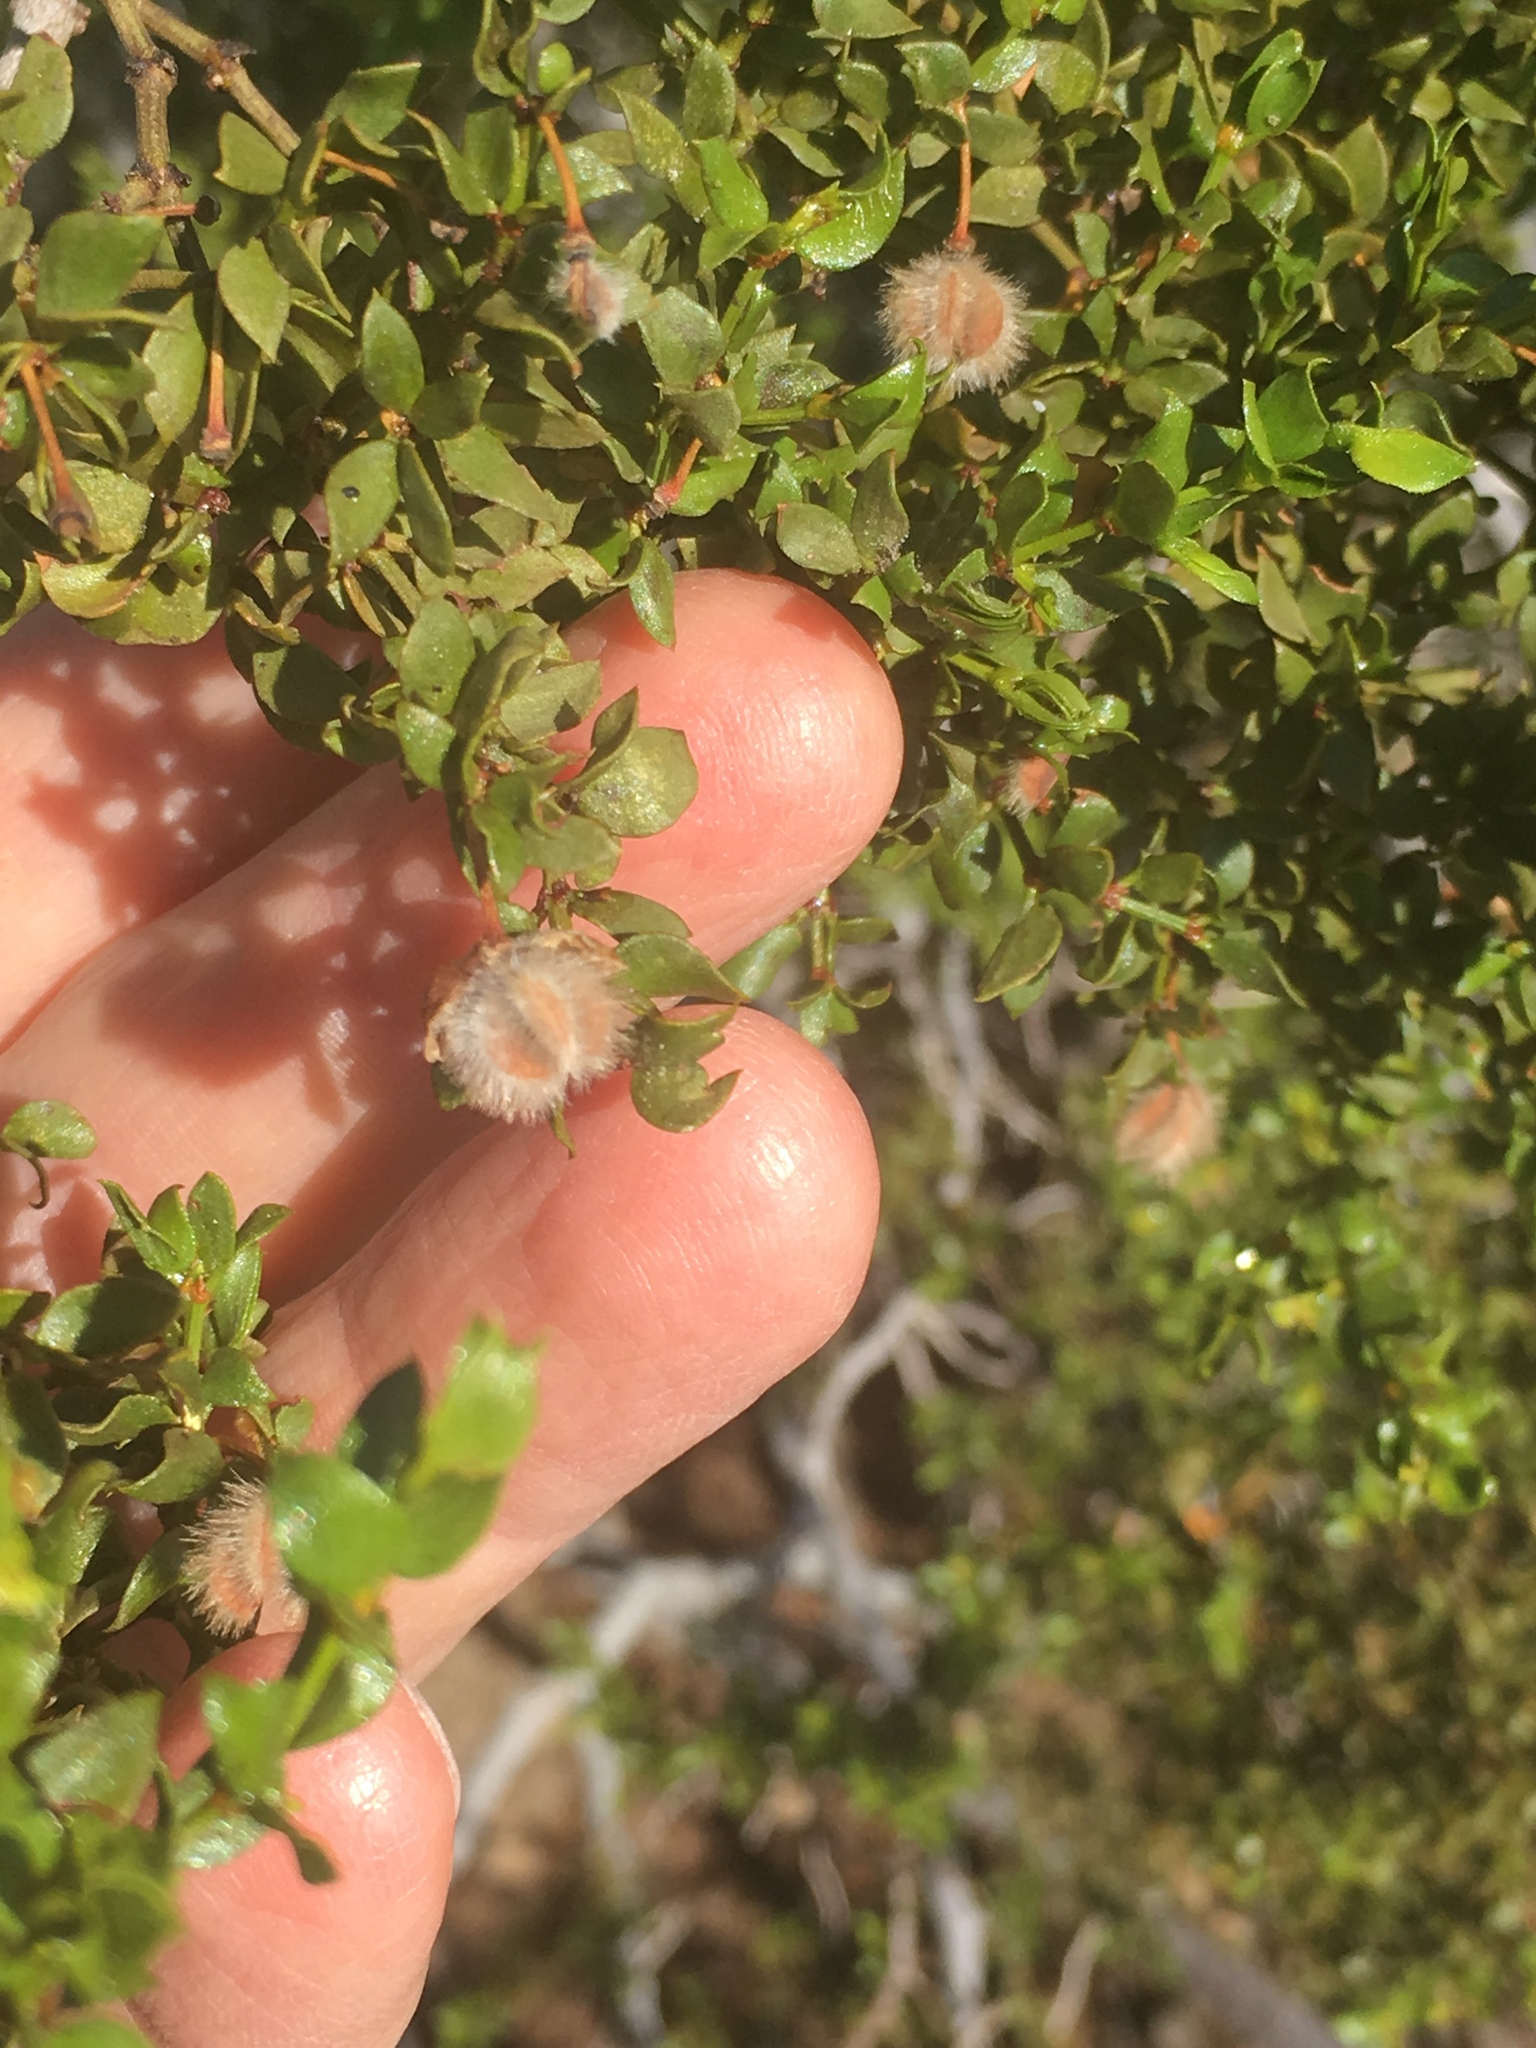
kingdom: Plantae
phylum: Tracheophyta
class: Magnoliopsida
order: Zygophyllales
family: Zygophyllaceae
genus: Larrea
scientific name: Larrea tridentata
